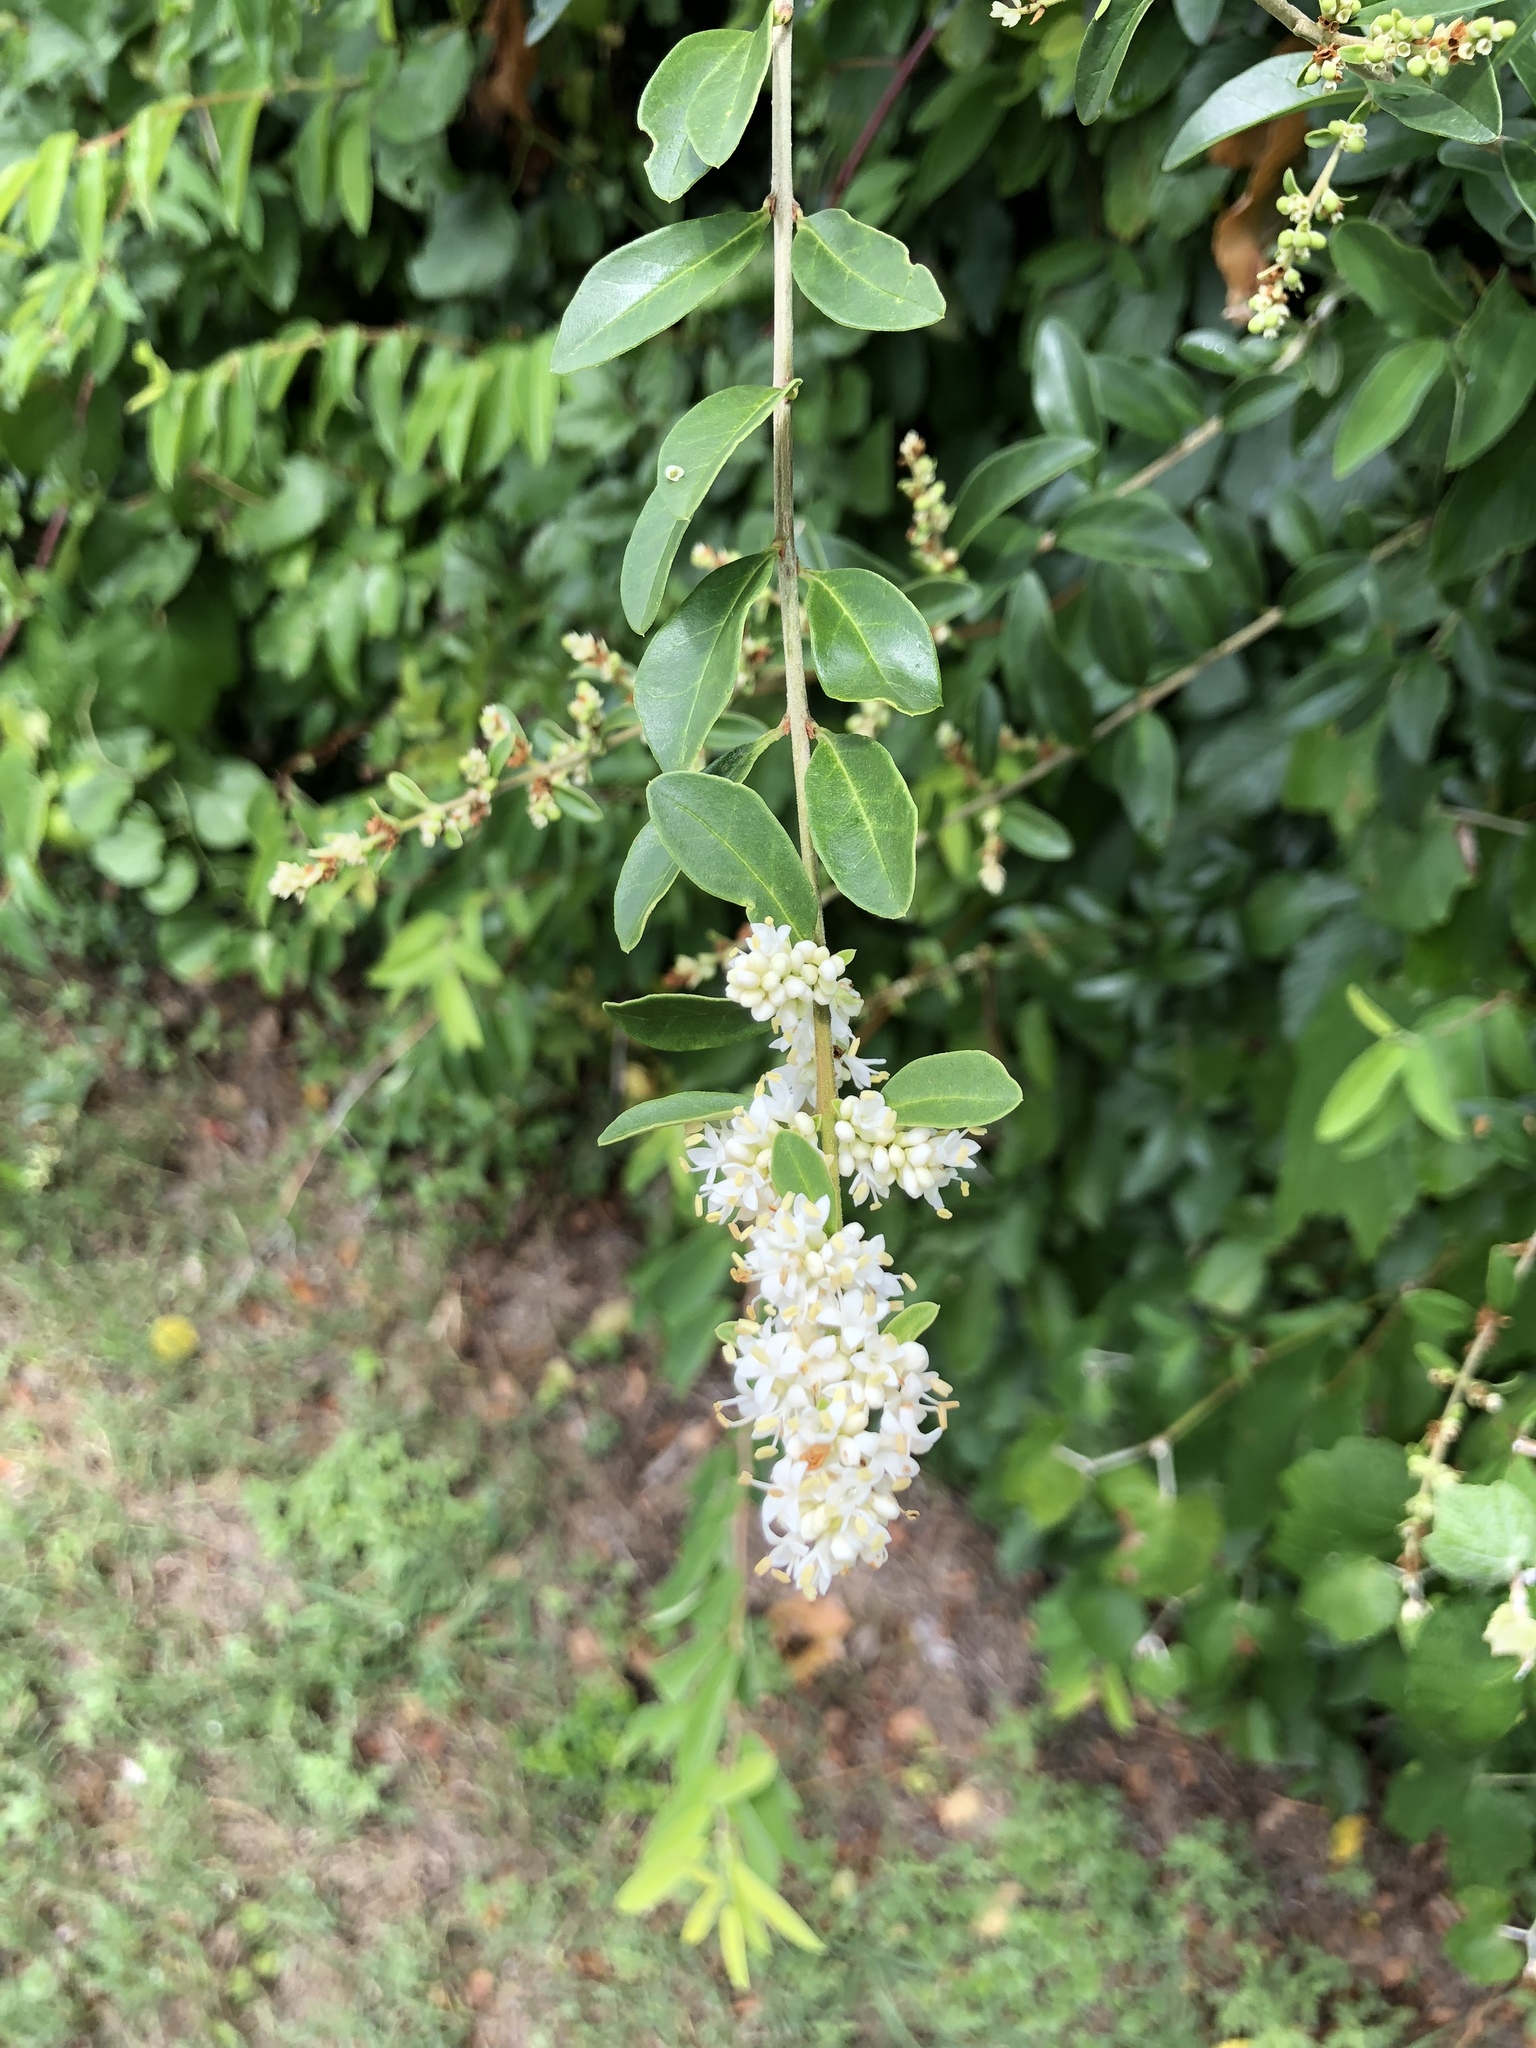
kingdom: Plantae
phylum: Tracheophyta
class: Magnoliopsida
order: Lamiales
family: Oleaceae
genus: Ligustrum
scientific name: Ligustrum quihoui
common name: Waxyleaf privet
